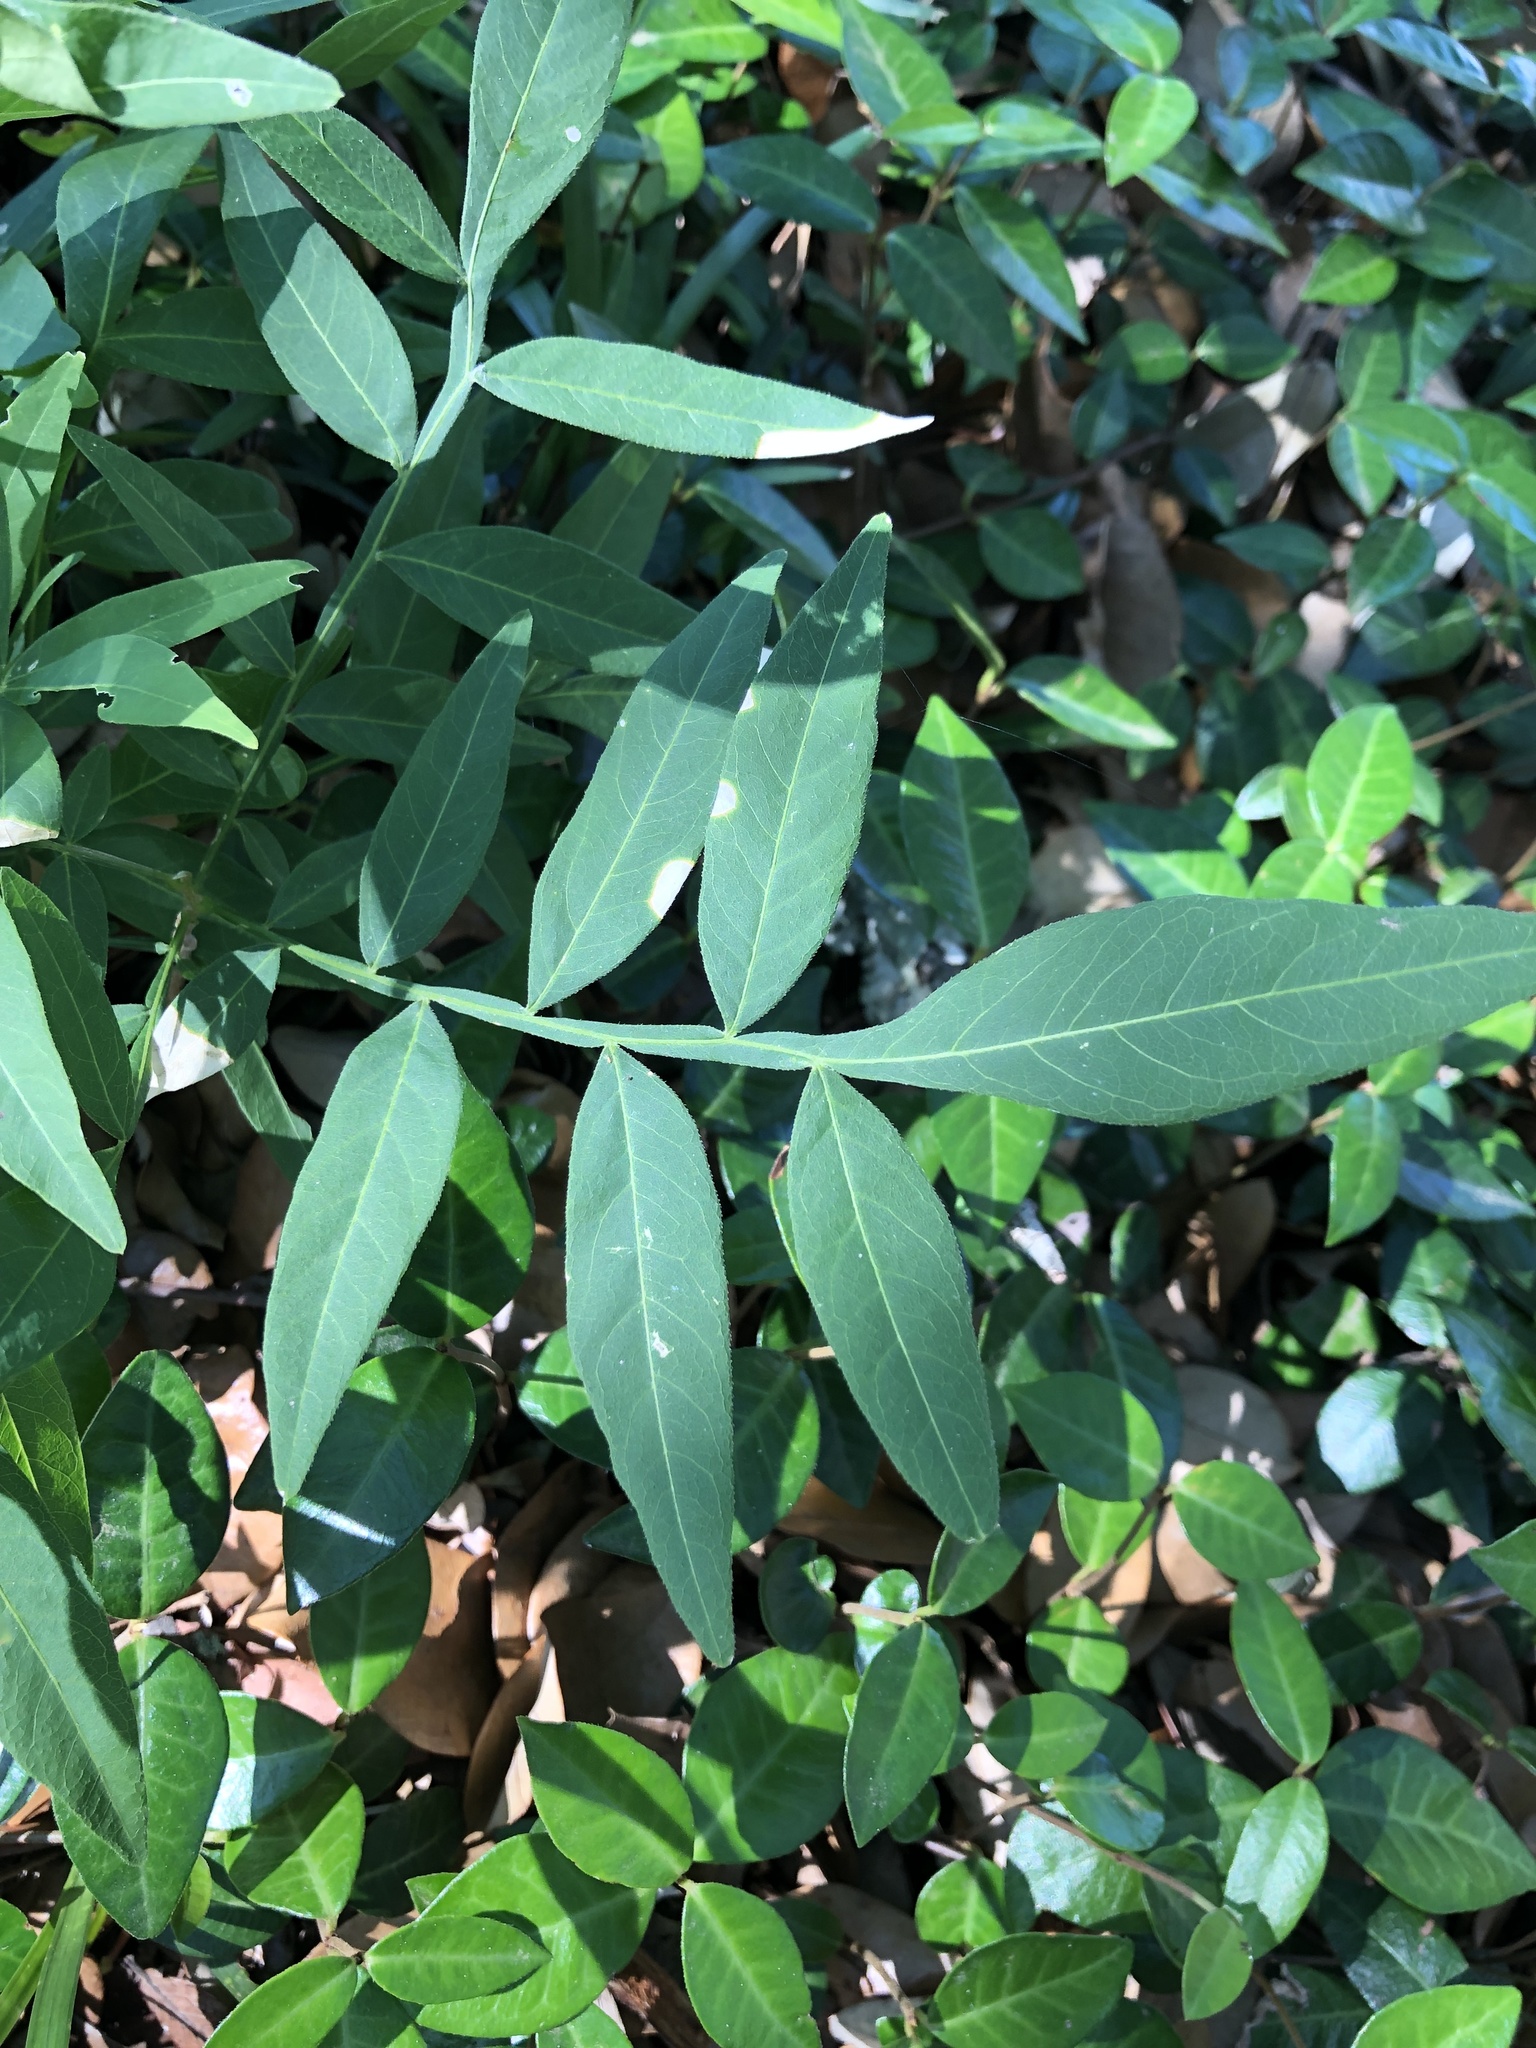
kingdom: Plantae
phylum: Tracheophyta
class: Magnoliopsida
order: Sapindales
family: Sapindaceae
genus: Sapindus
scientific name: Sapindus drummondii
